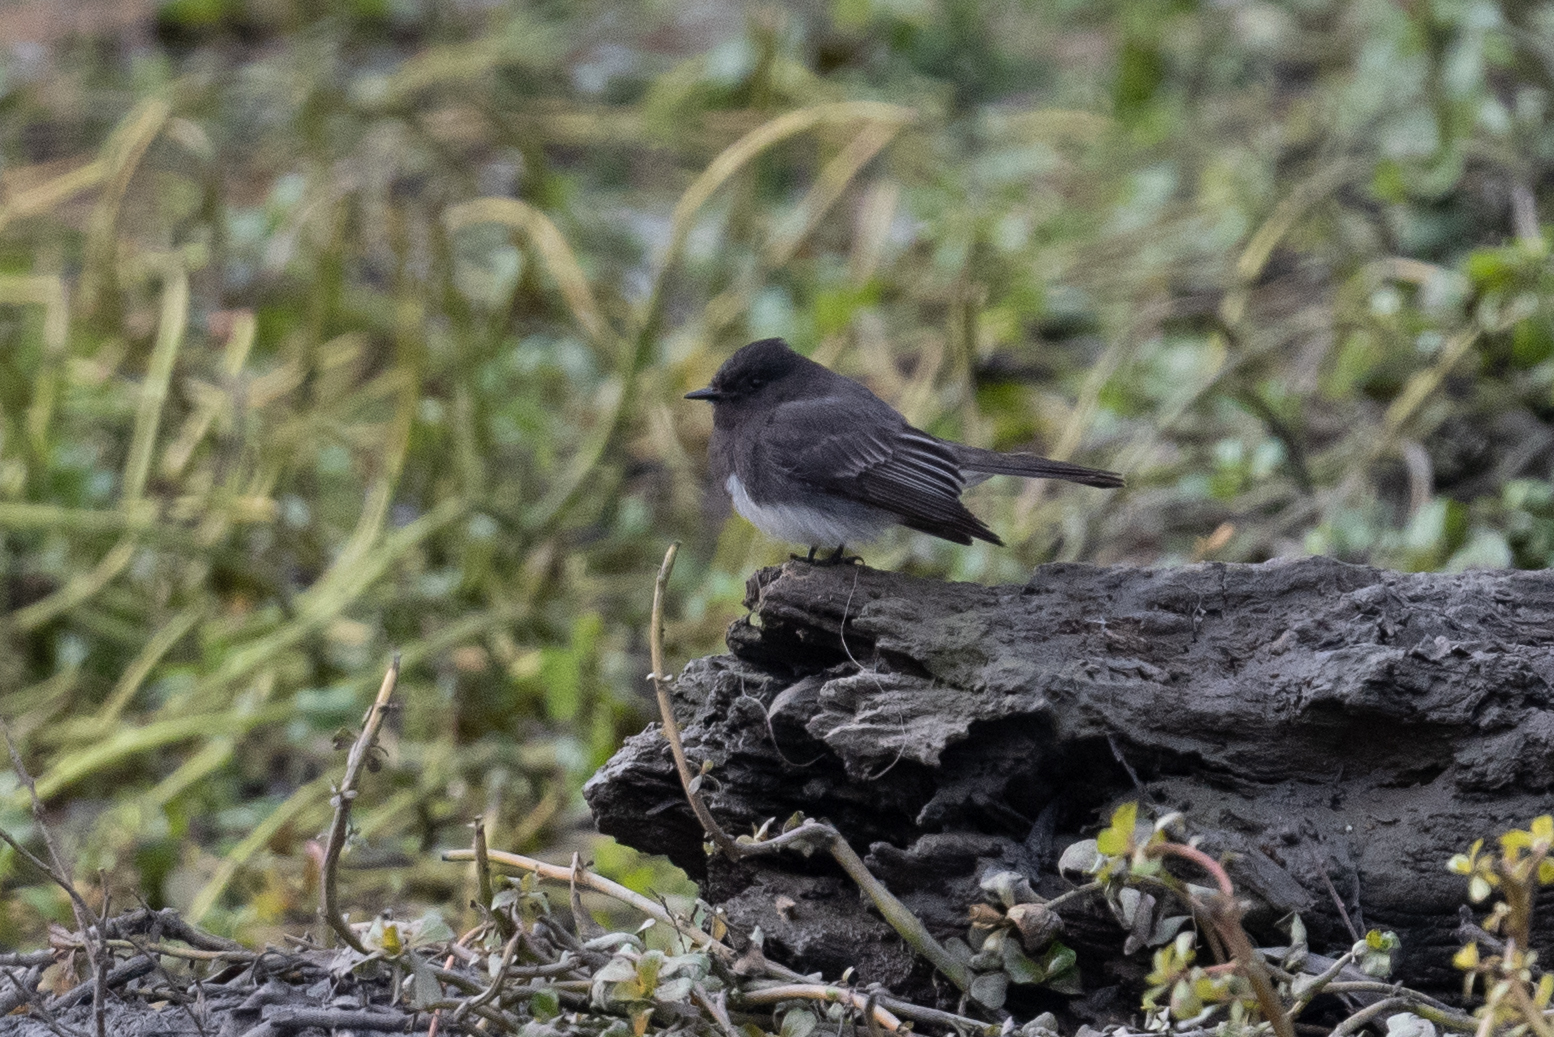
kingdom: Animalia
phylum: Chordata
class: Aves
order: Passeriformes
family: Tyrannidae
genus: Sayornis
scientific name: Sayornis nigricans
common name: Black phoebe
